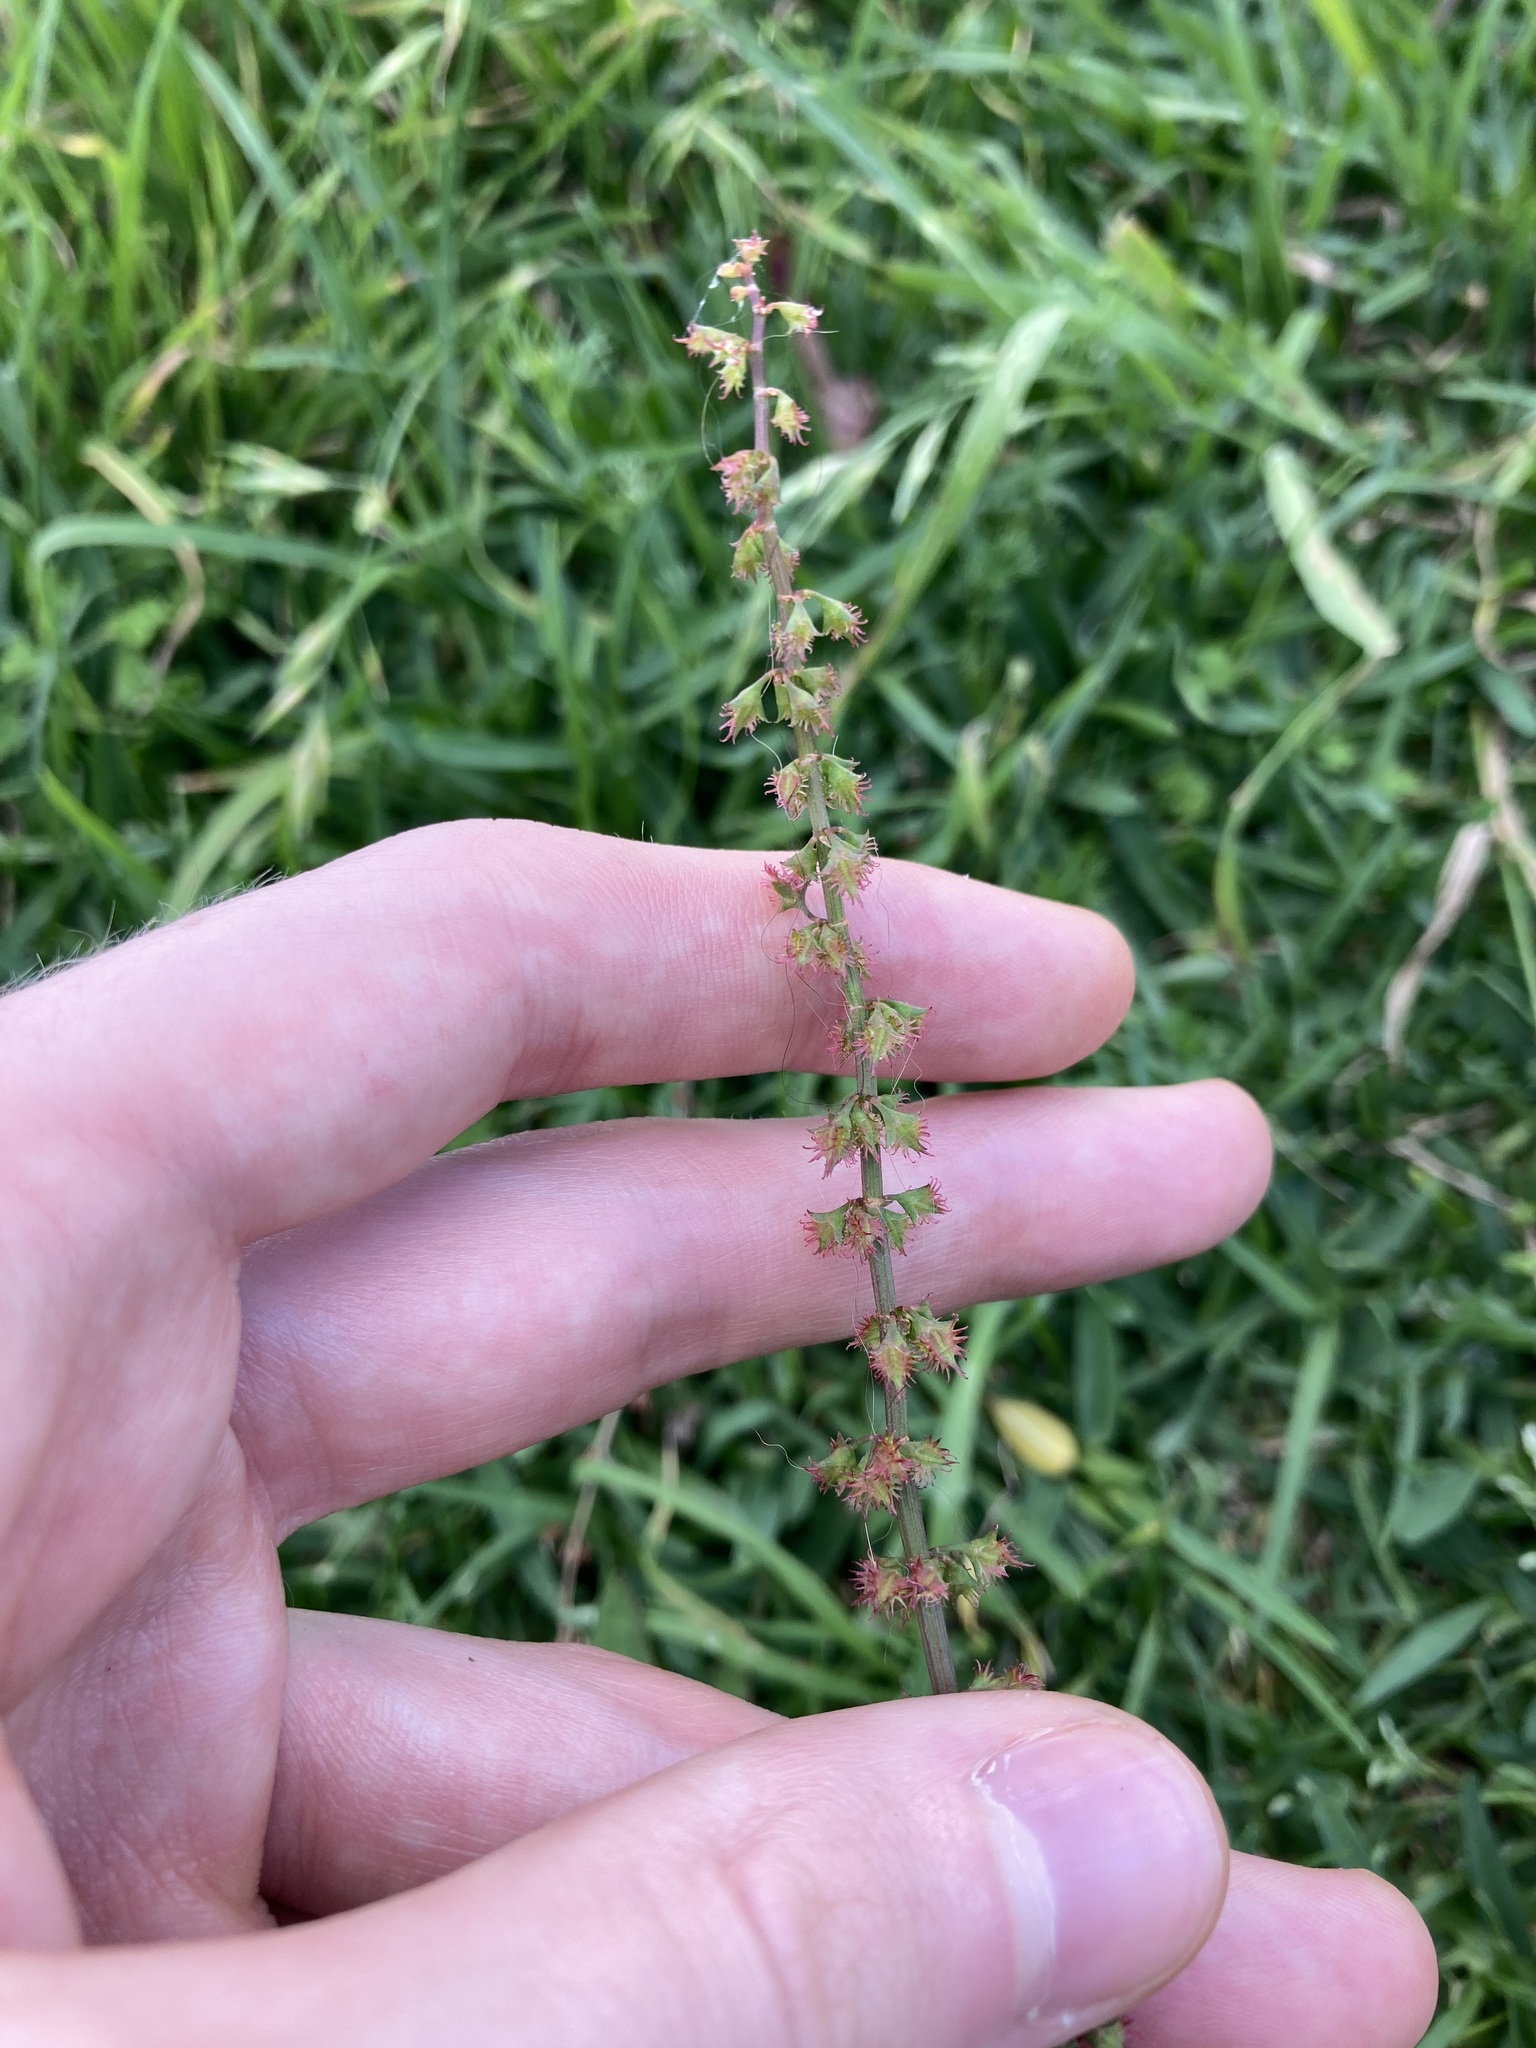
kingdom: Plantae
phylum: Tracheophyta
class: Magnoliopsida
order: Caryophyllales
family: Polygonaceae
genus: Rumex
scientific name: Rumex brownii
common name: Hooked dock
